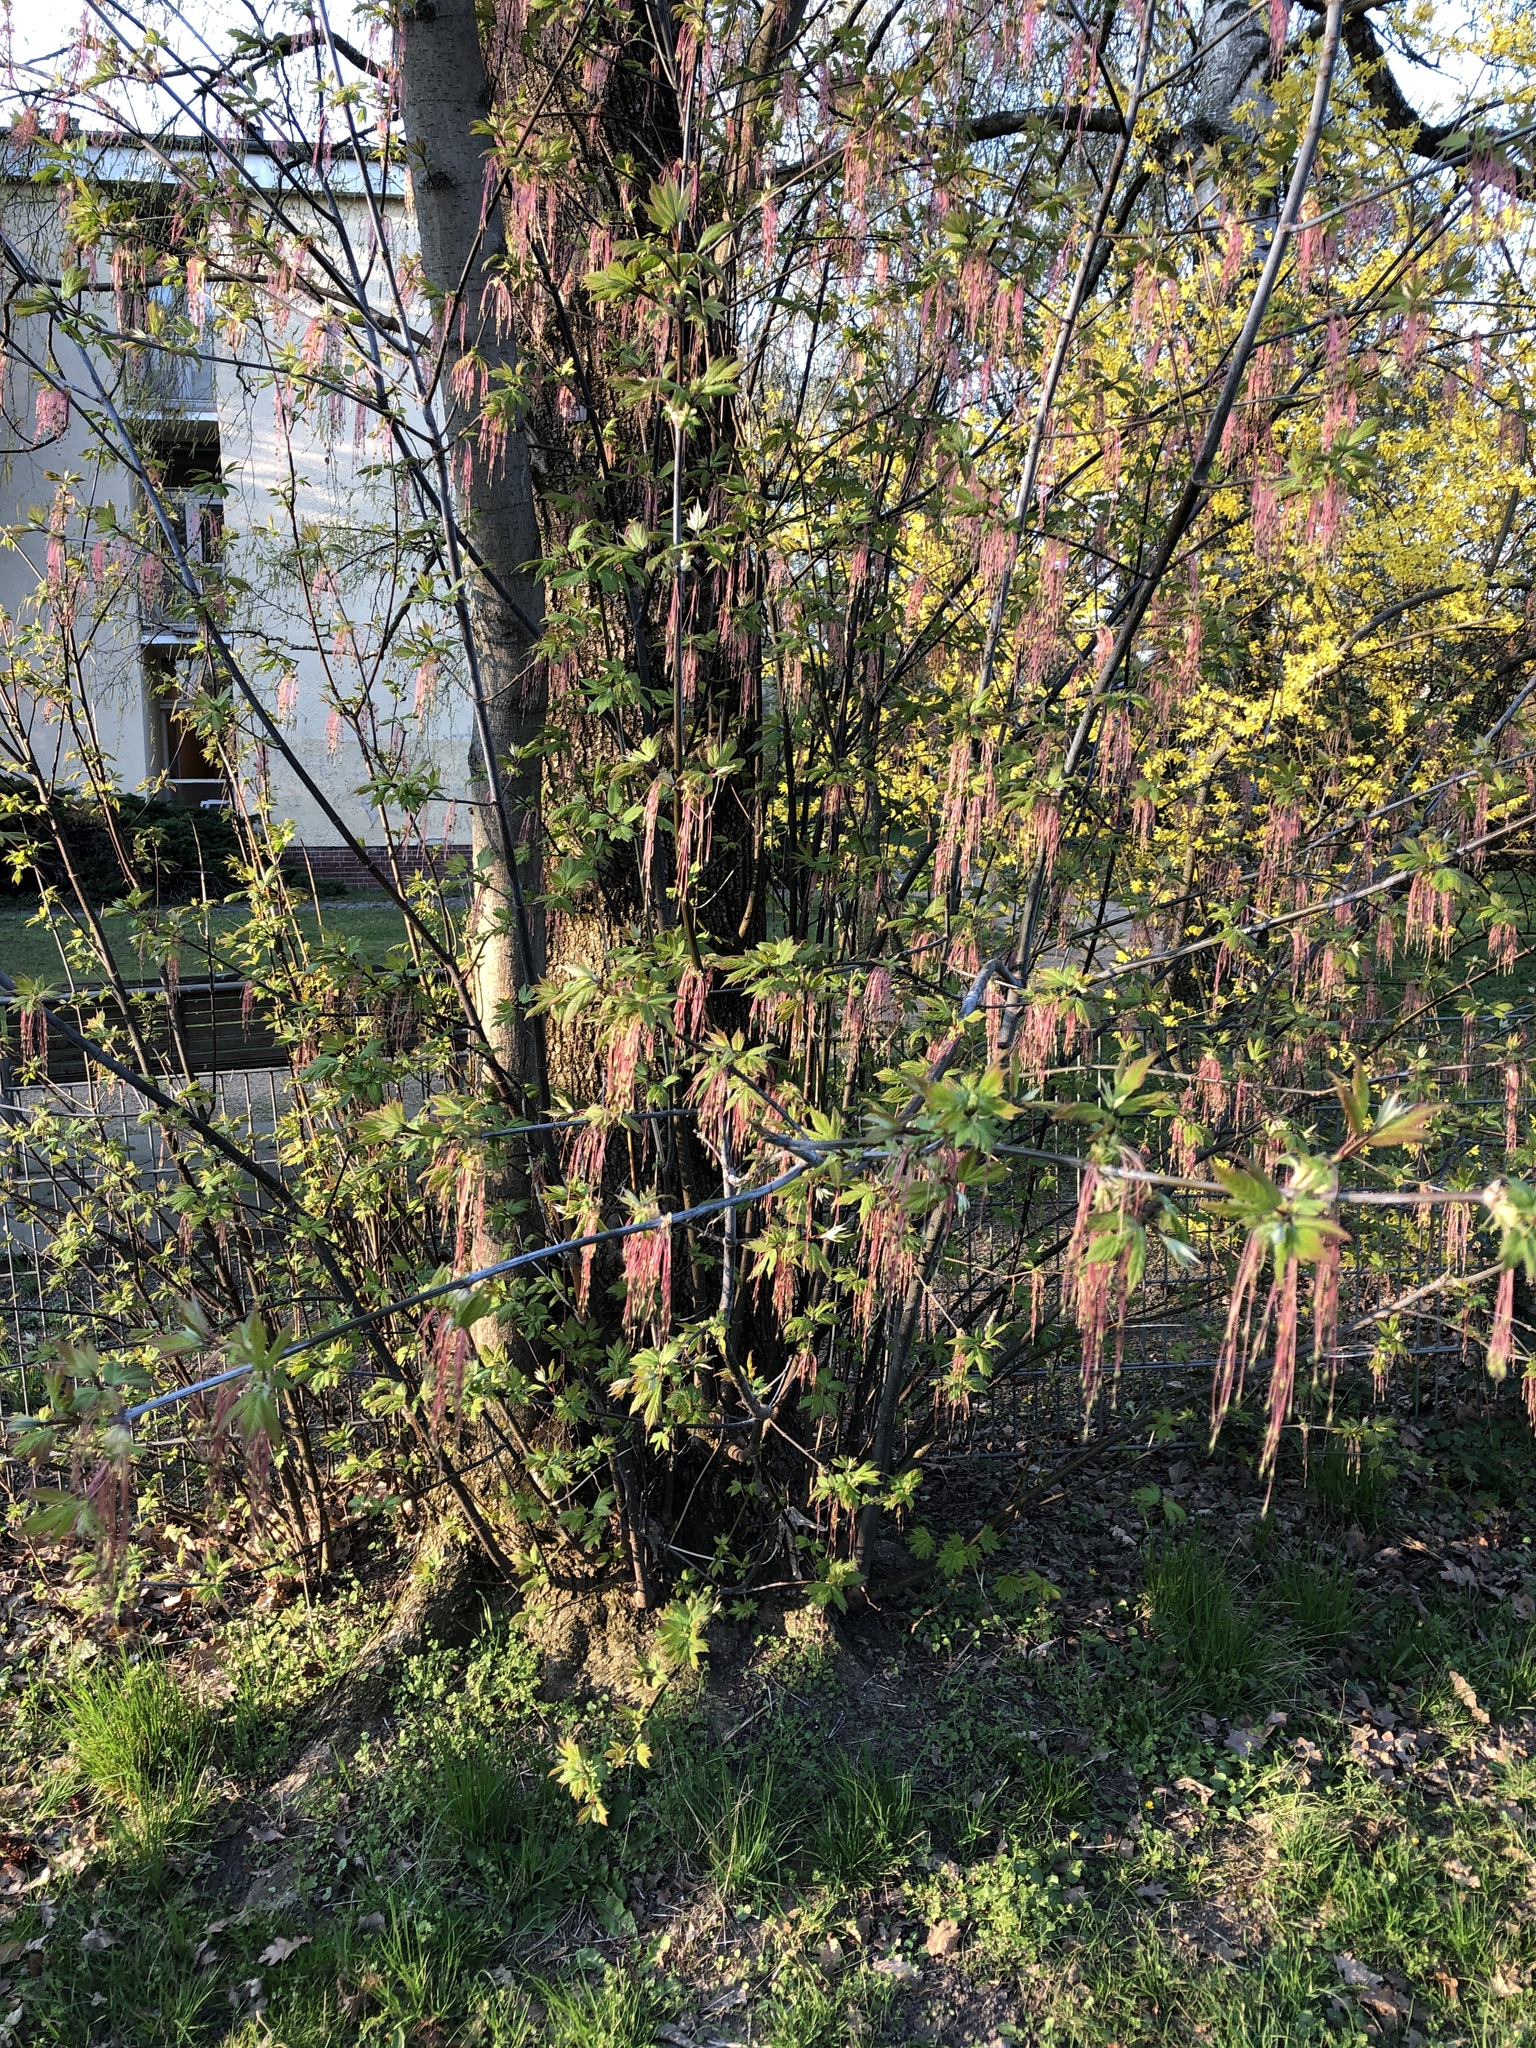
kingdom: Plantae
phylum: Tracheophyta
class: Magnoliopsida
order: Sapindales
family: Sapindaceae
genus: Acer
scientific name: Acer negundo
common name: Ashleaf maple
